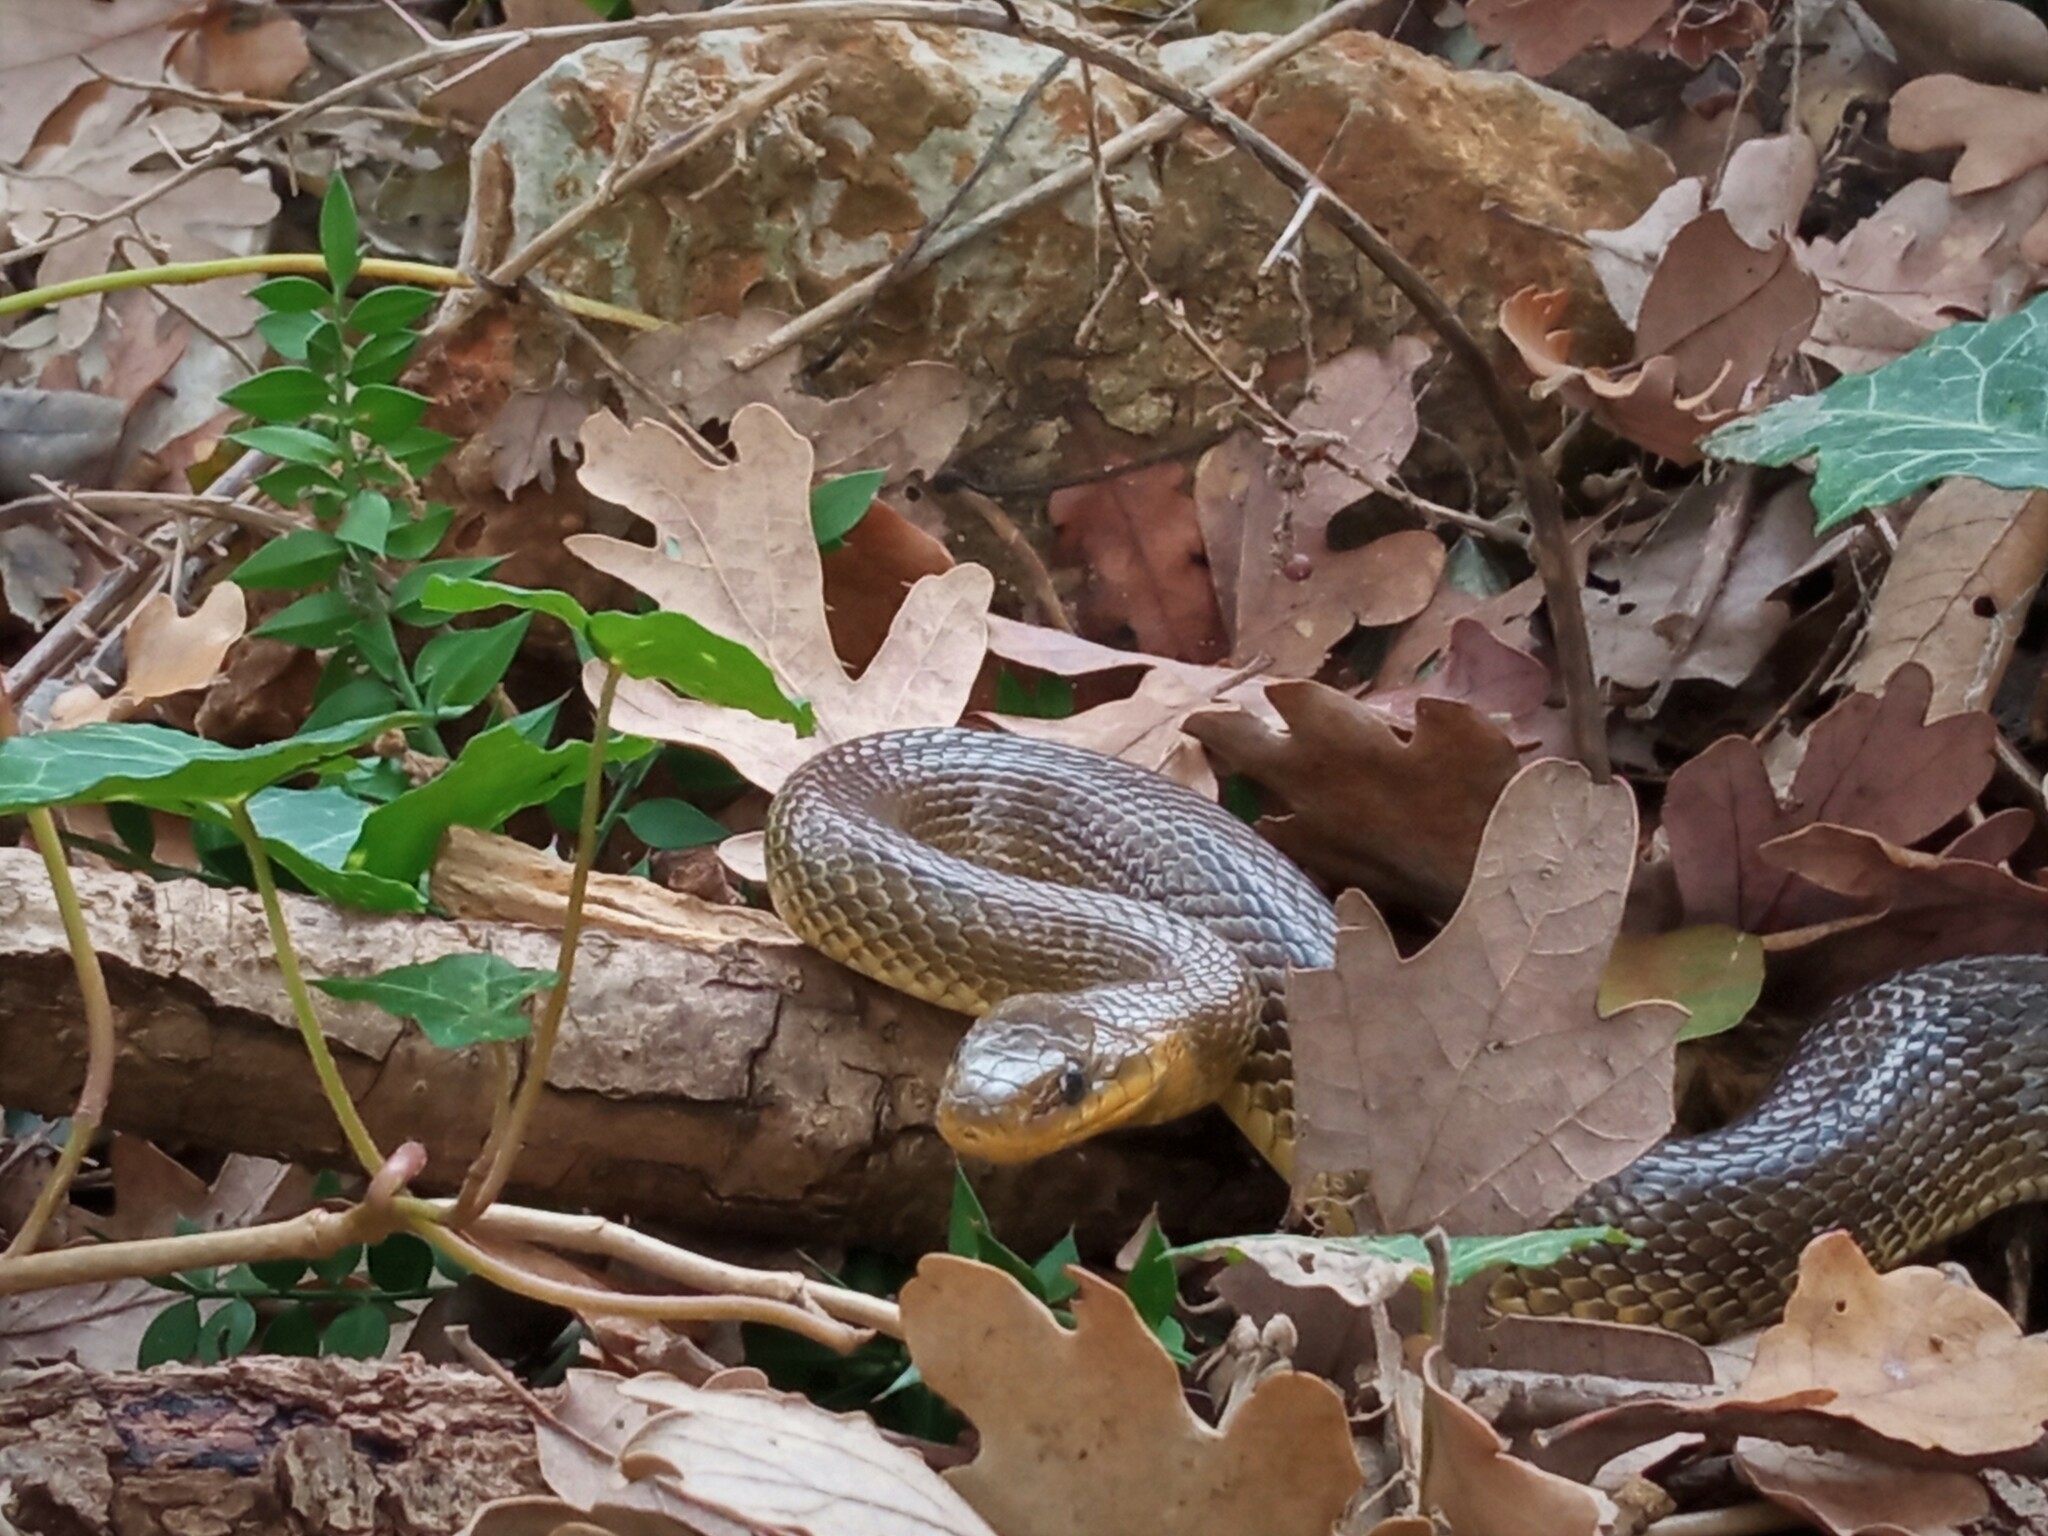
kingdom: Animalia
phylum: Chordata
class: Squamata
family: Colubridae
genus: Zamenis
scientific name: Zamenis longissimus
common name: Aesculapean snake
